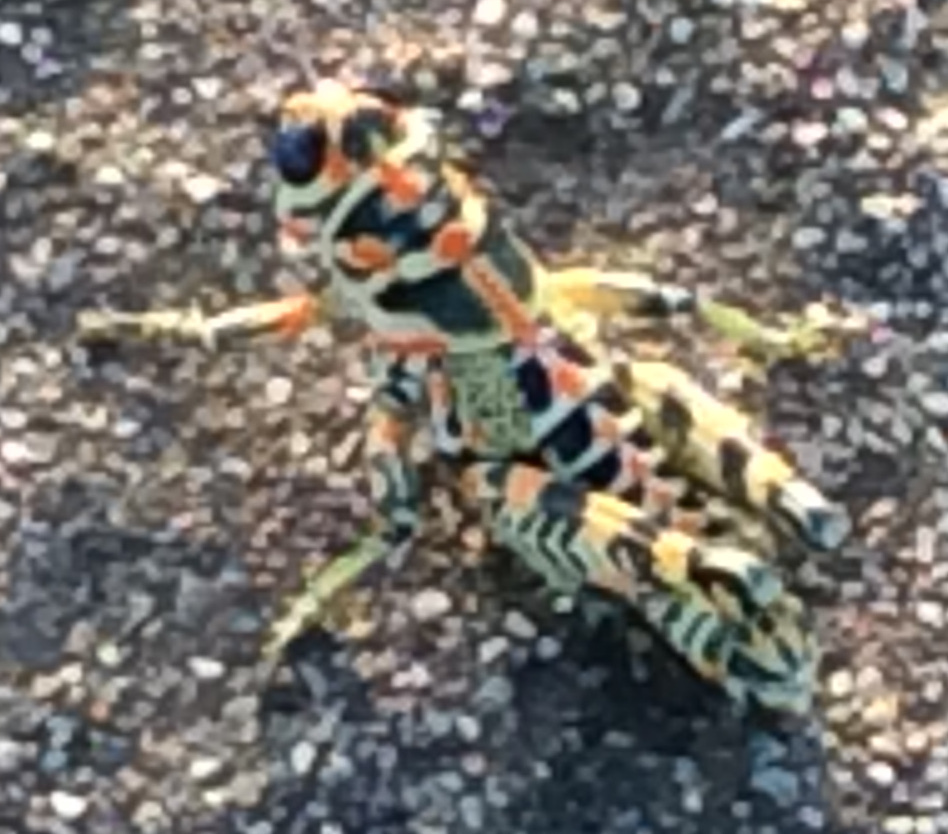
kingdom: Animalia
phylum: Arthropoda
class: Insecta
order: Orthoptera
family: Acrididae
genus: Dactylotum
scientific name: Dactylotum bicolor
